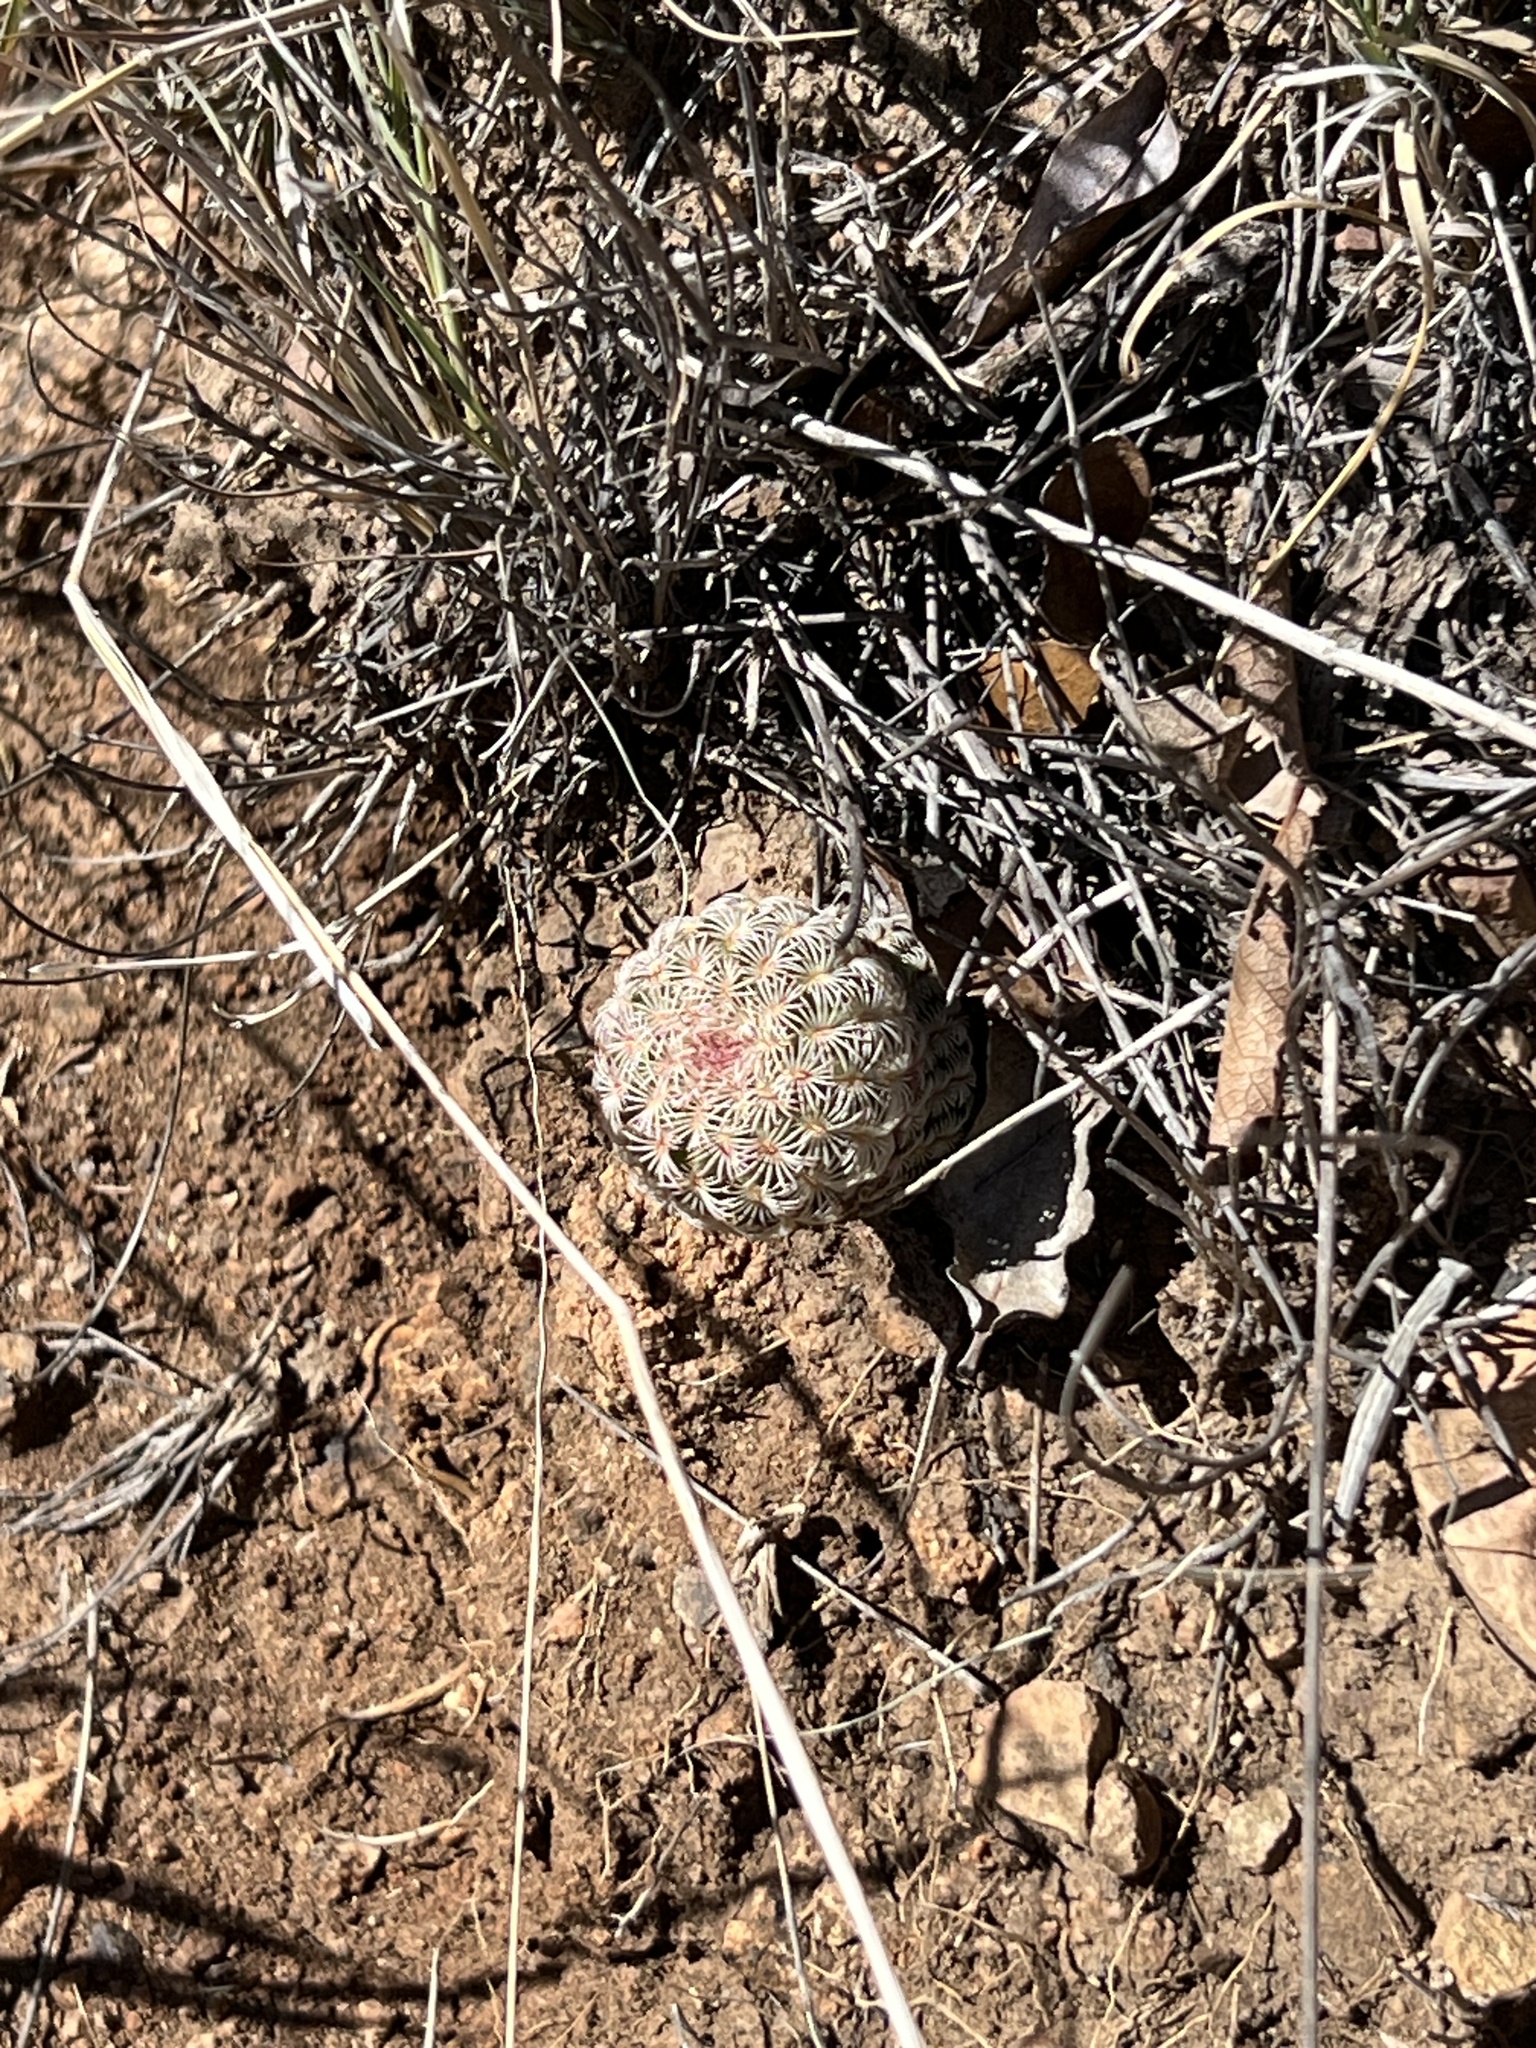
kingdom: Plantae
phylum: Tracheophyta
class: Magnoliopsida
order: Caryophyllales
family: Cactaceae
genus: Echinocereus
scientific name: Echinocereus rigidissimus
